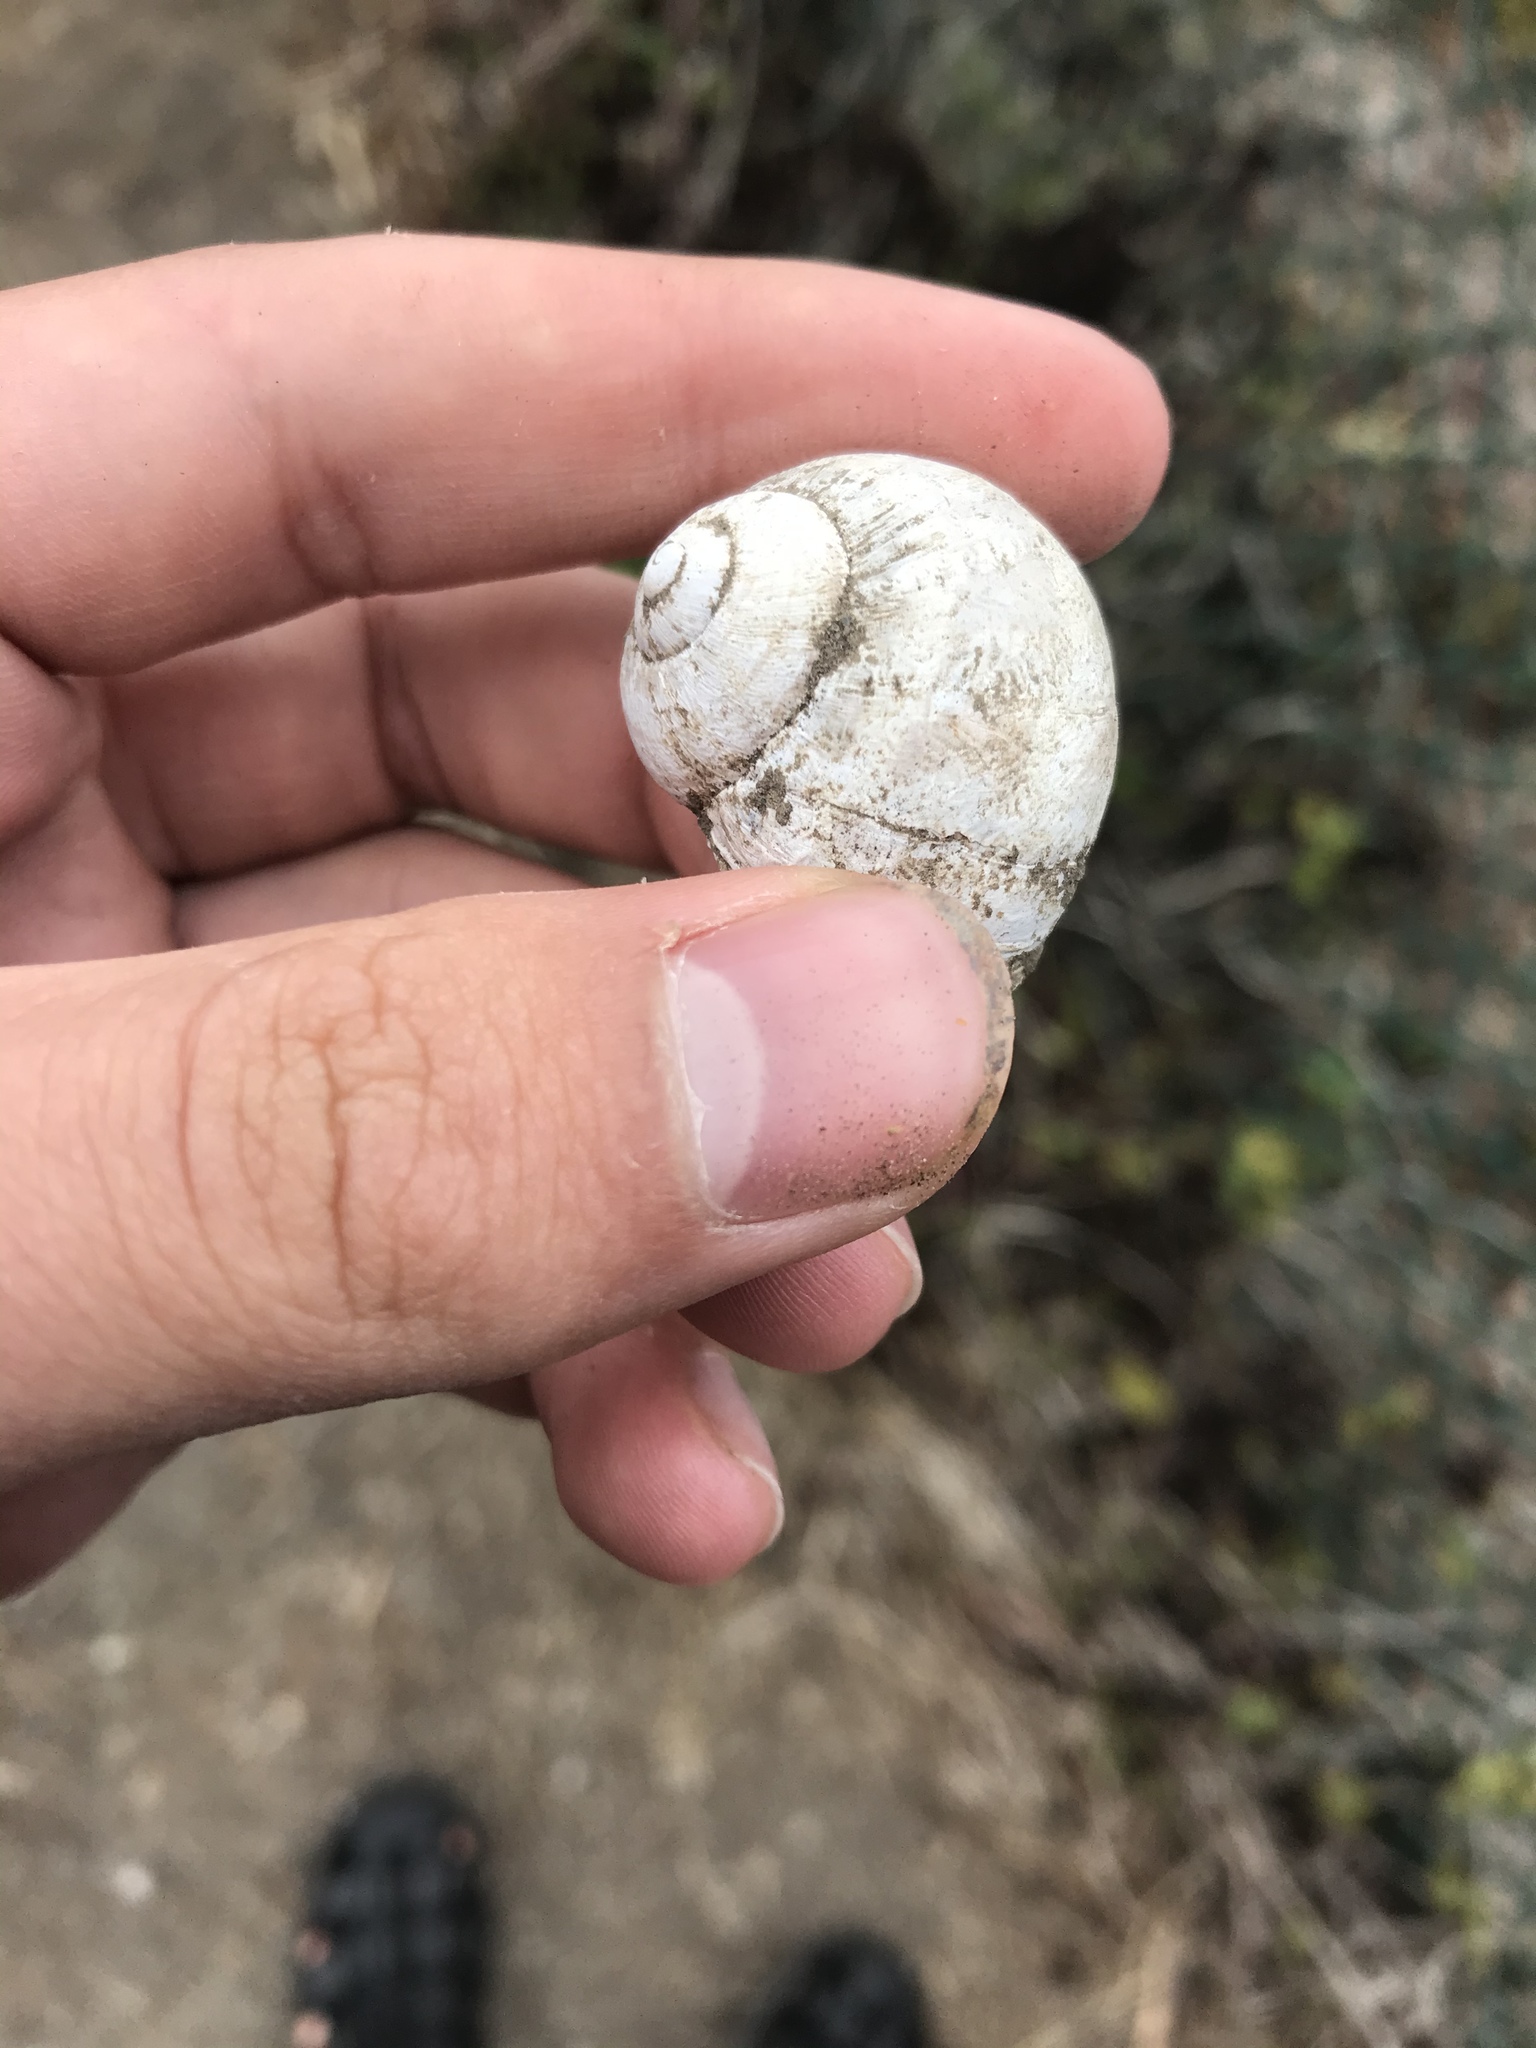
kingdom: Animalia
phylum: Mollusca
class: Gastropoda
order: Stylommatophora
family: Helicidae
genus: Cornu
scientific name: Cornu aspersum
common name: Brown garden snail
